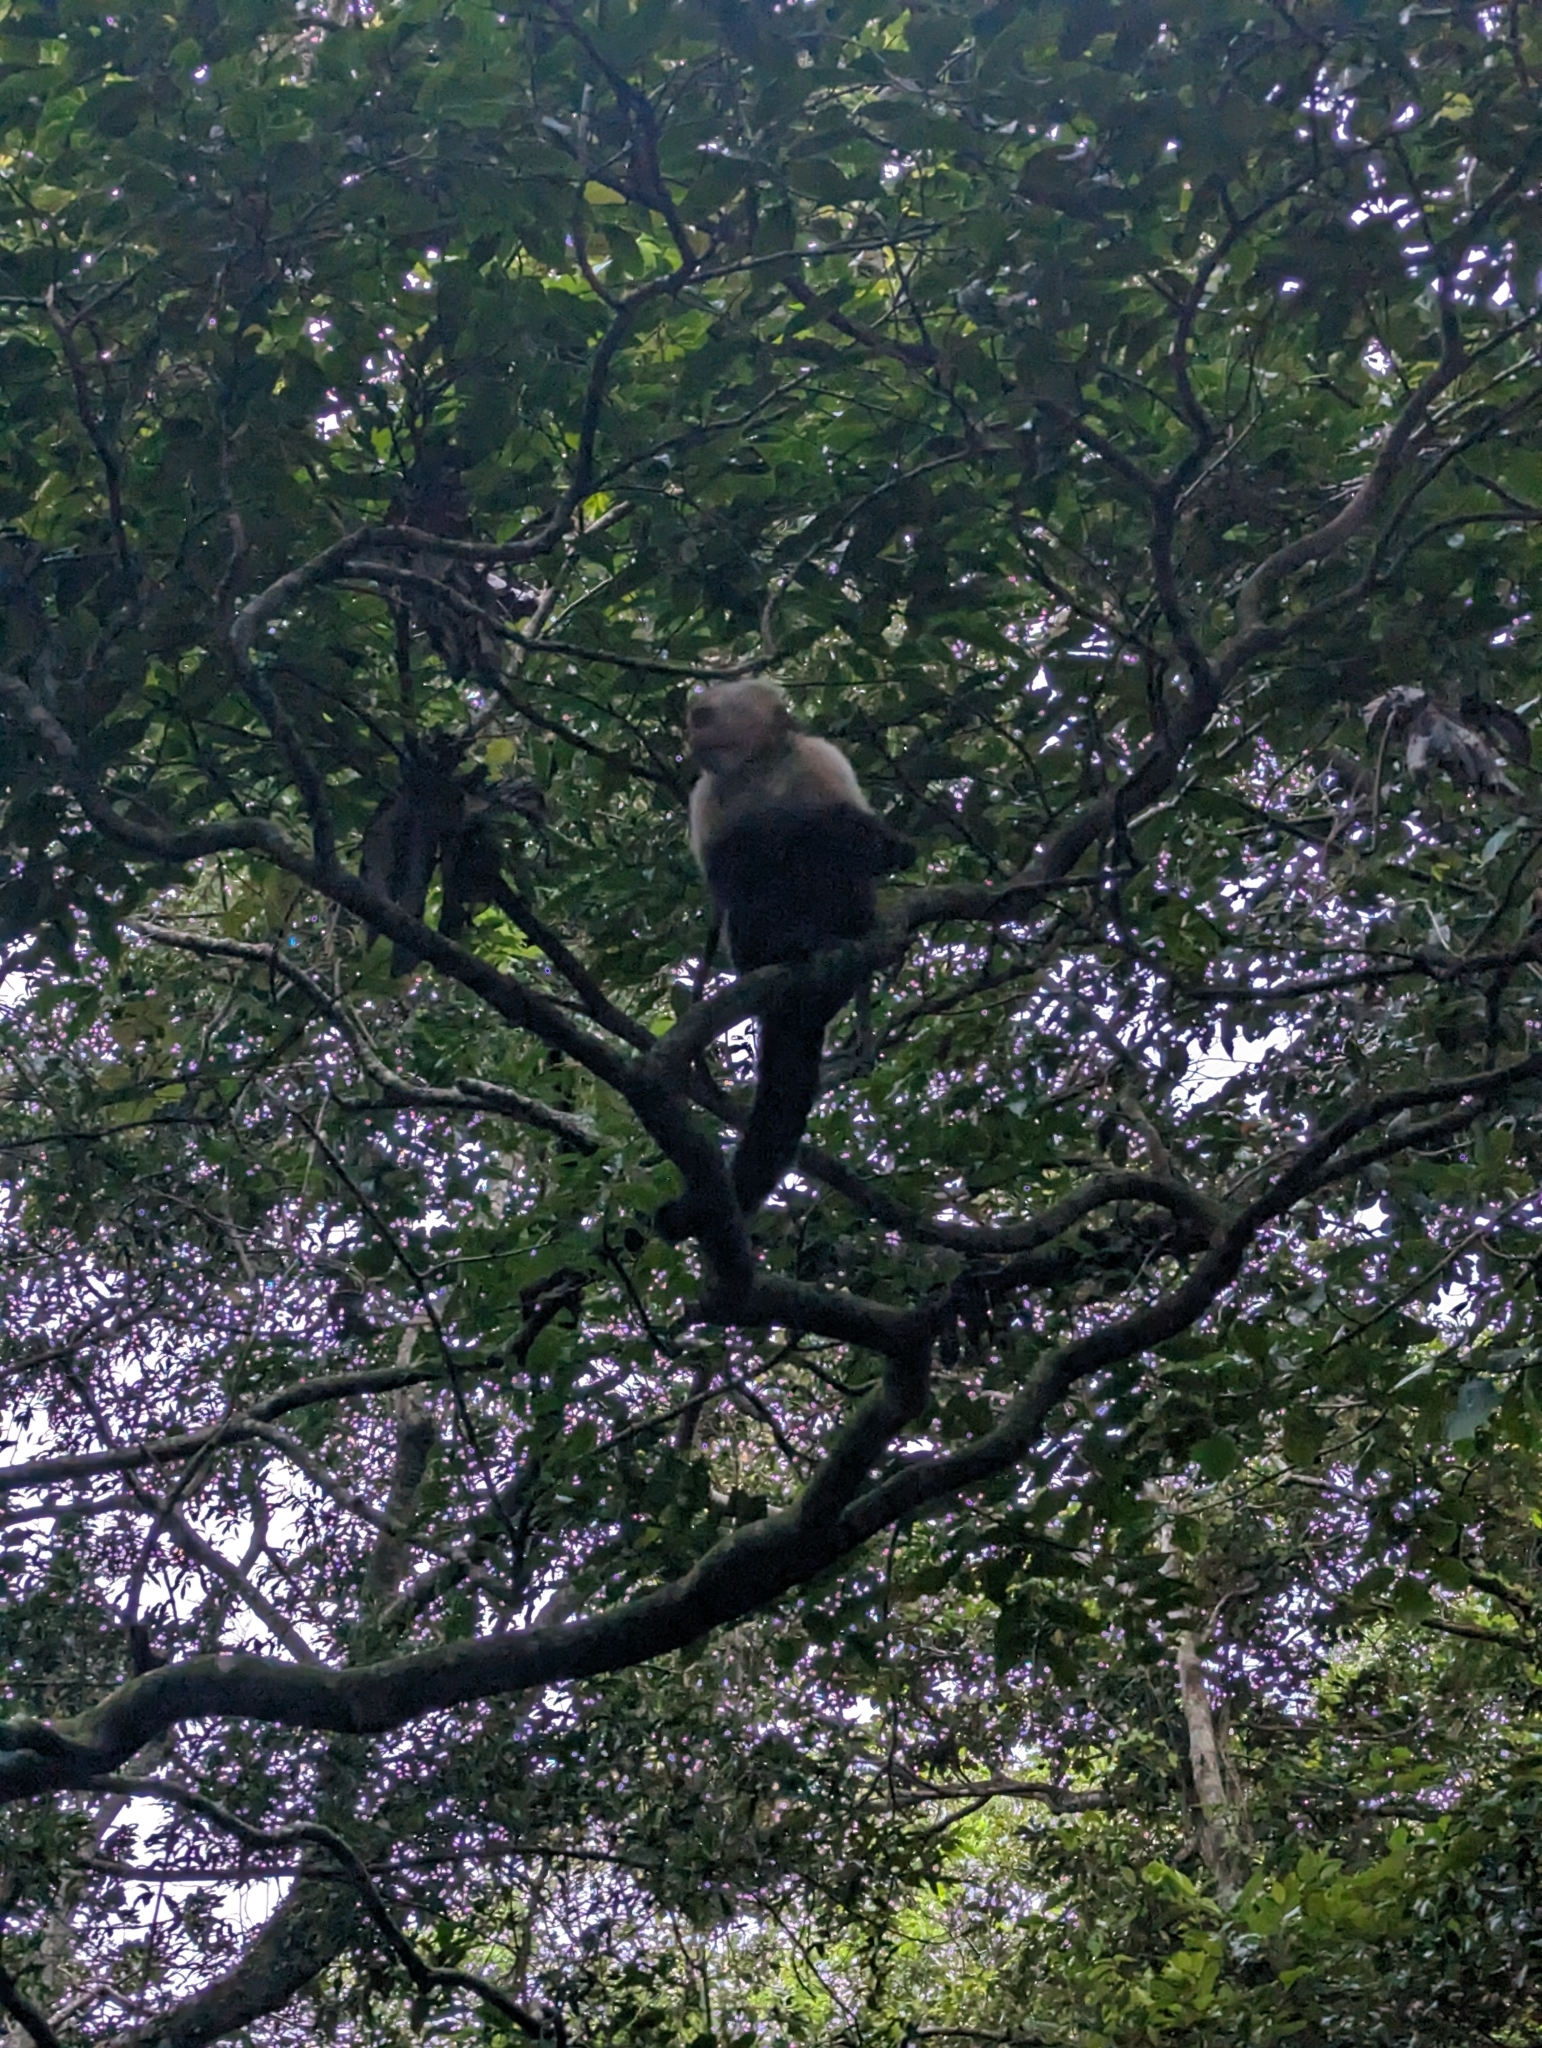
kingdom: Animalia
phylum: Chordata
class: Mammalia
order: Primates
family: Cebidae
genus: Cebus
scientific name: Cebus imitator
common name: Panamanian white-faced capuchin
